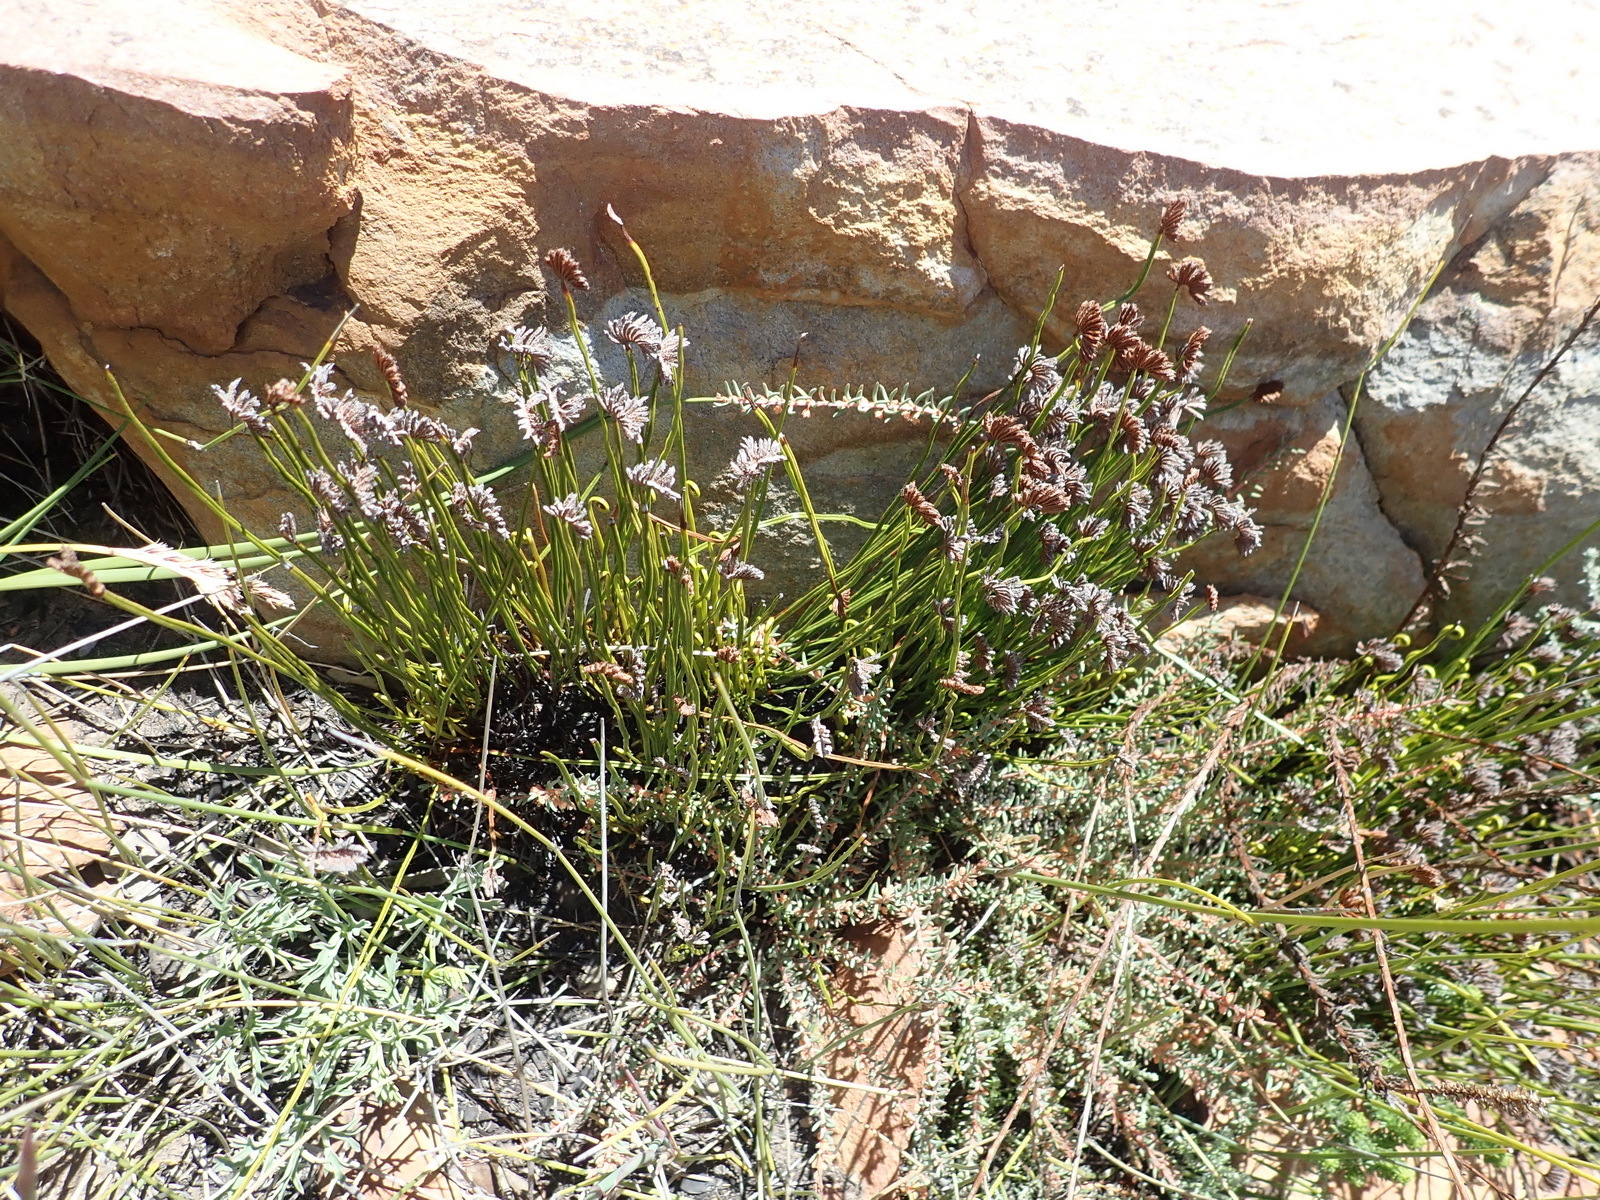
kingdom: Plantae
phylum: Tracheophyta
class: Polypodiopsida
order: Schizaeales
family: Schizaeaceae
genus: Schizaea
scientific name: Schizaea pectinata
